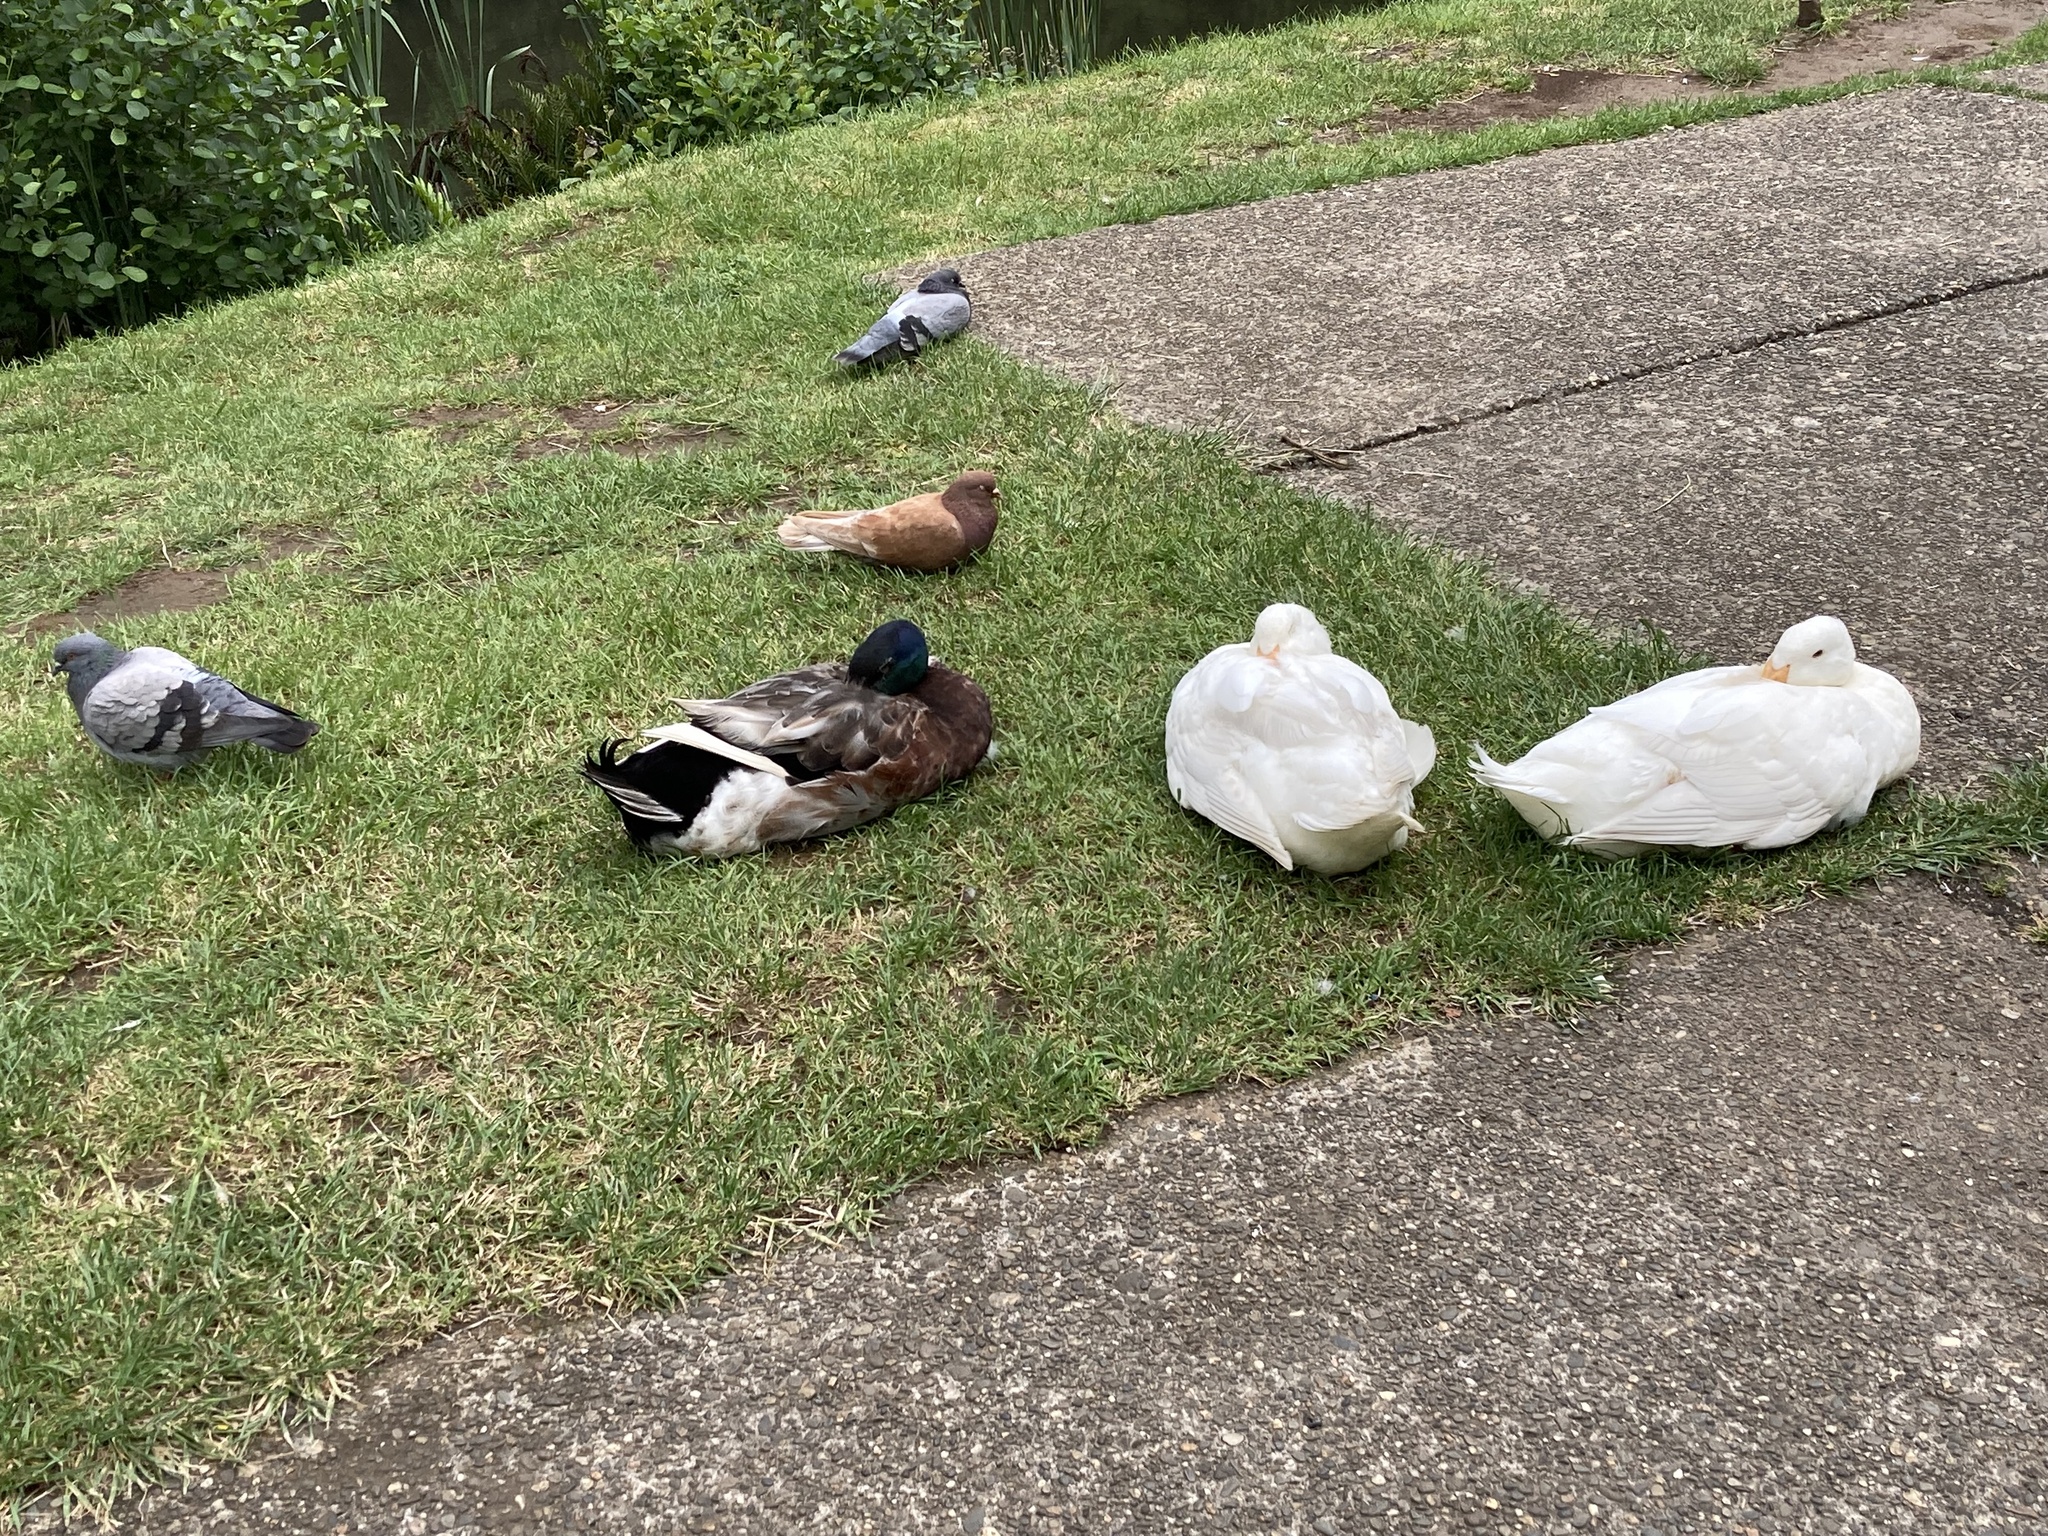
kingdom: Animalia
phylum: Chordata
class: Aves
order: Anseriformes
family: Anatidae
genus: Anas
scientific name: Anas platyrhynchos
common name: Mallard
